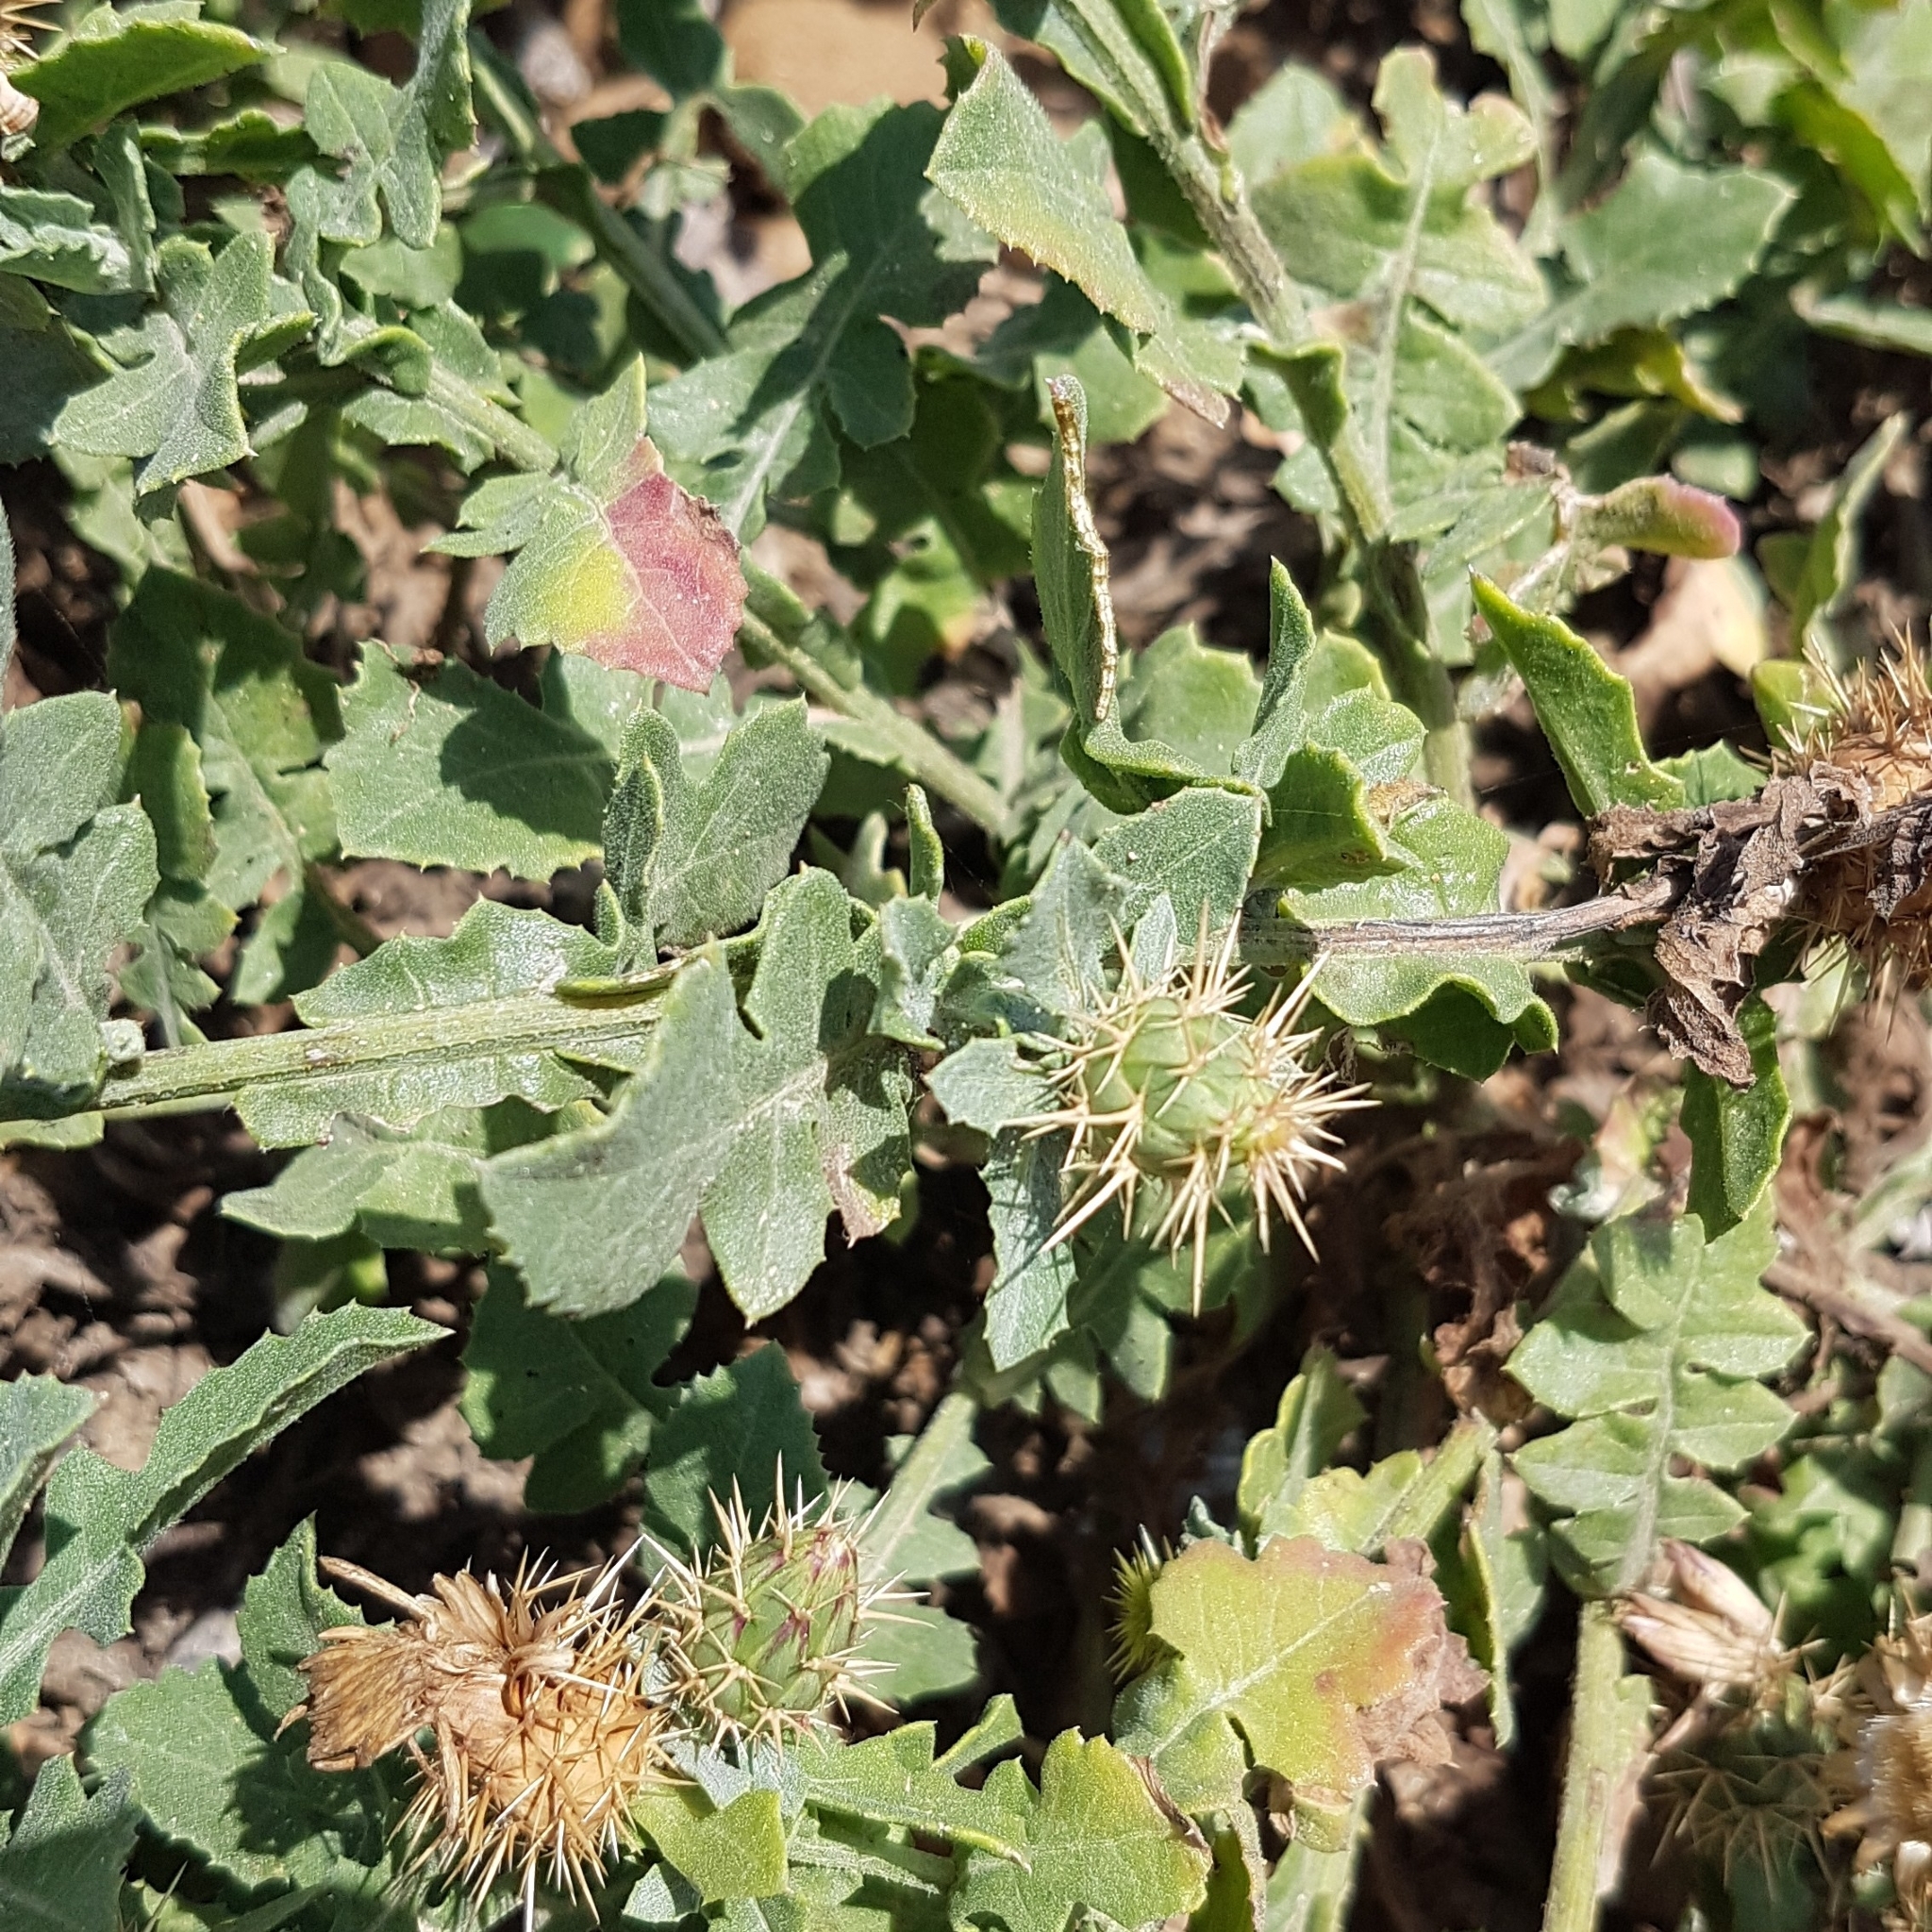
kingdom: Plantae
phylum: Tracheophyta
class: Magnoliopsida
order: Asterales
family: Asteraceae
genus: Centaurea
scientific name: Centaurea sphaerocephala
